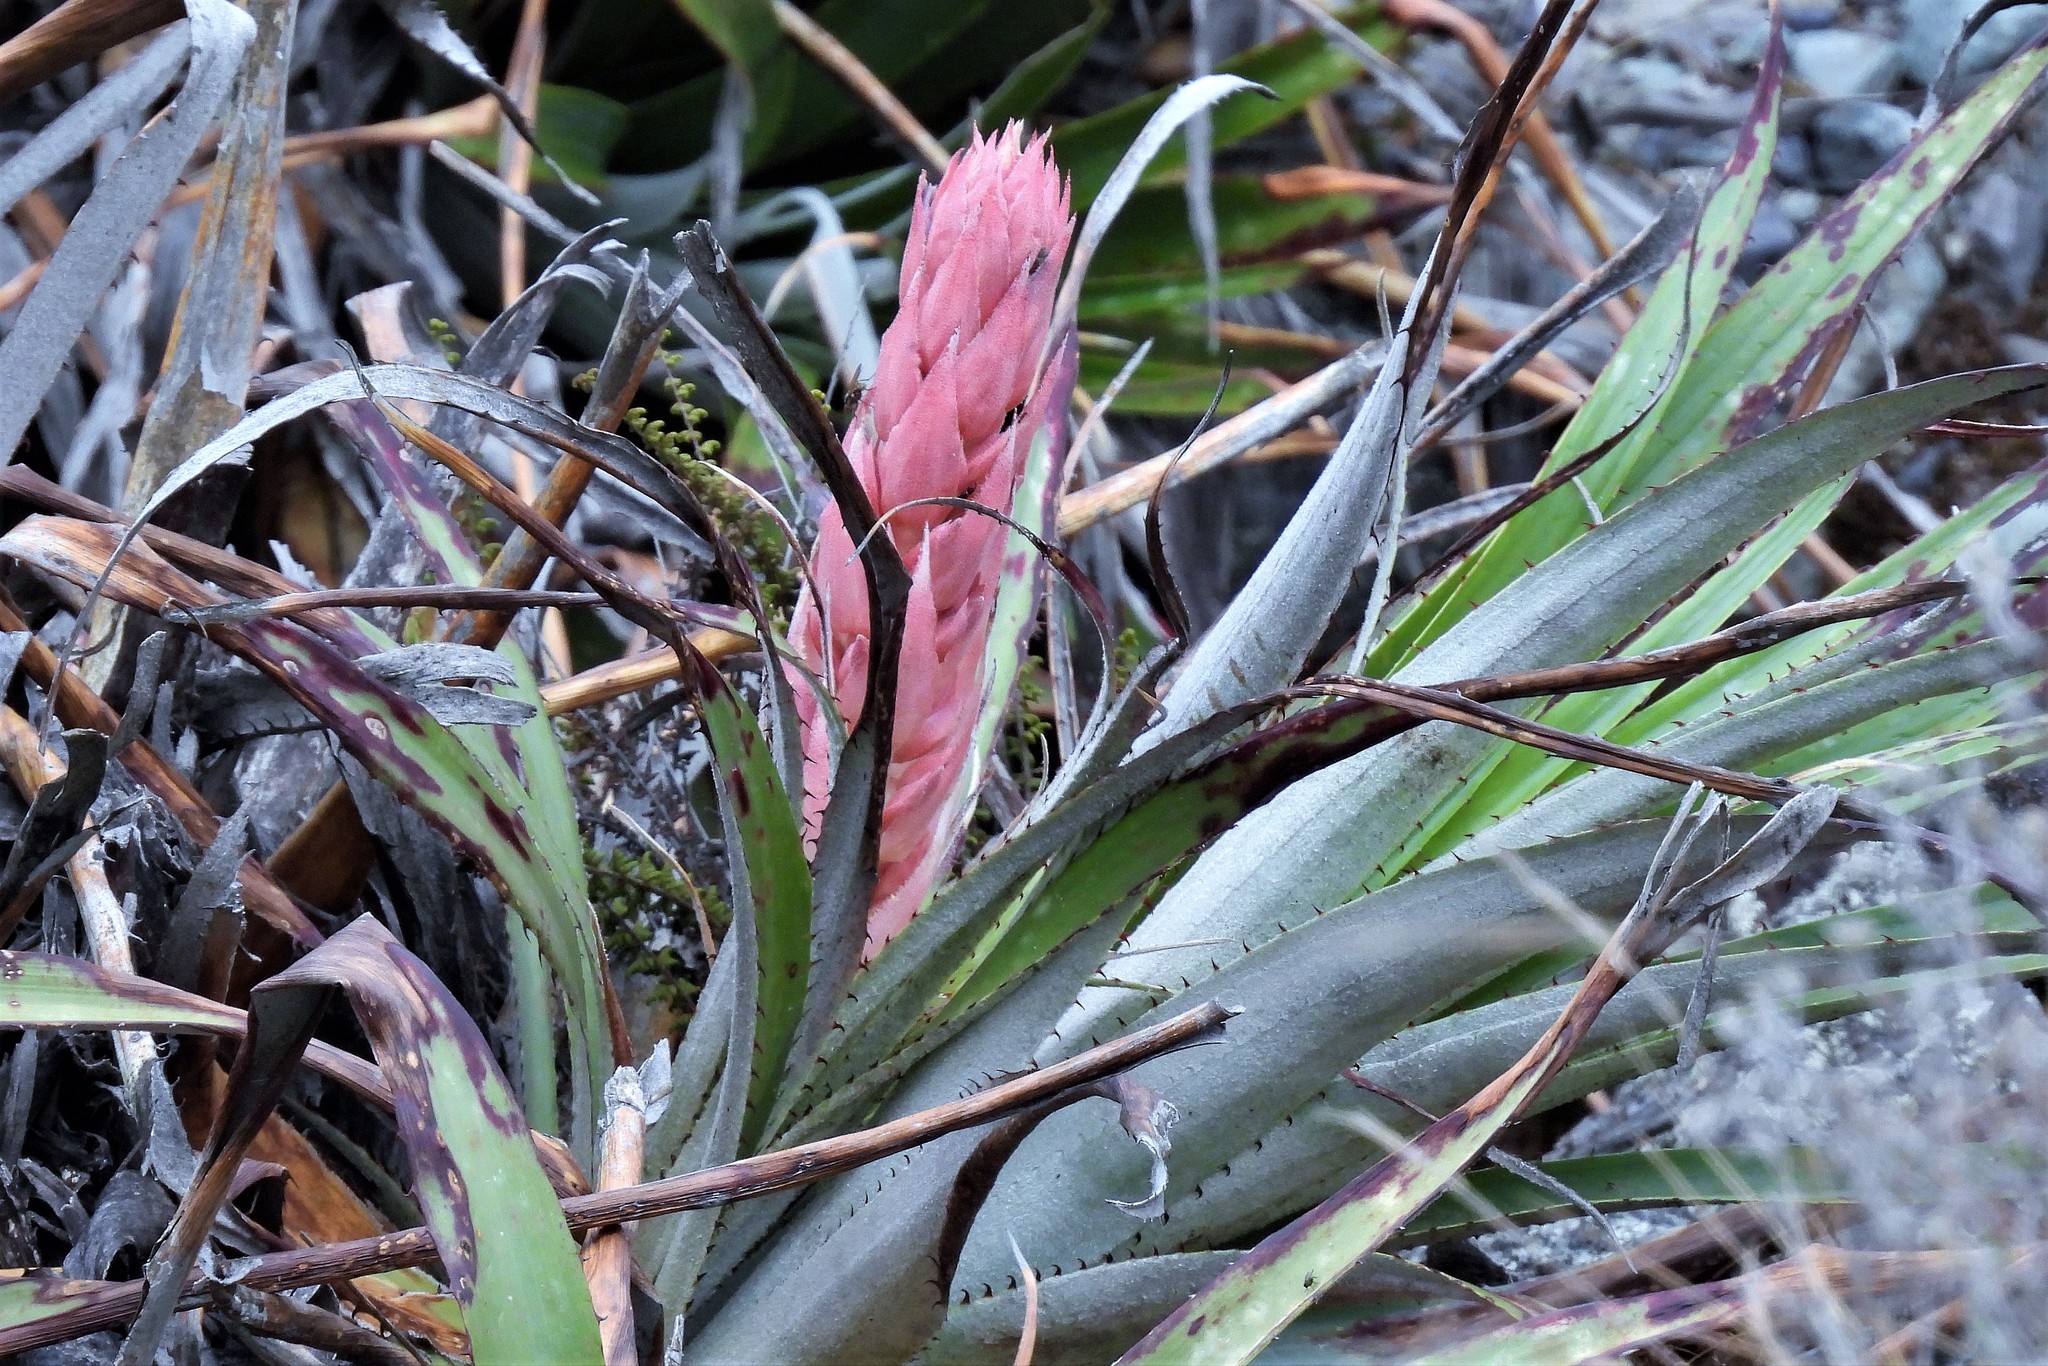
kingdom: Plantae
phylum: Tracheophyta
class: Liliopsida
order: Poales
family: Bromeliaceae
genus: Puya
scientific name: Puya dyckioides
